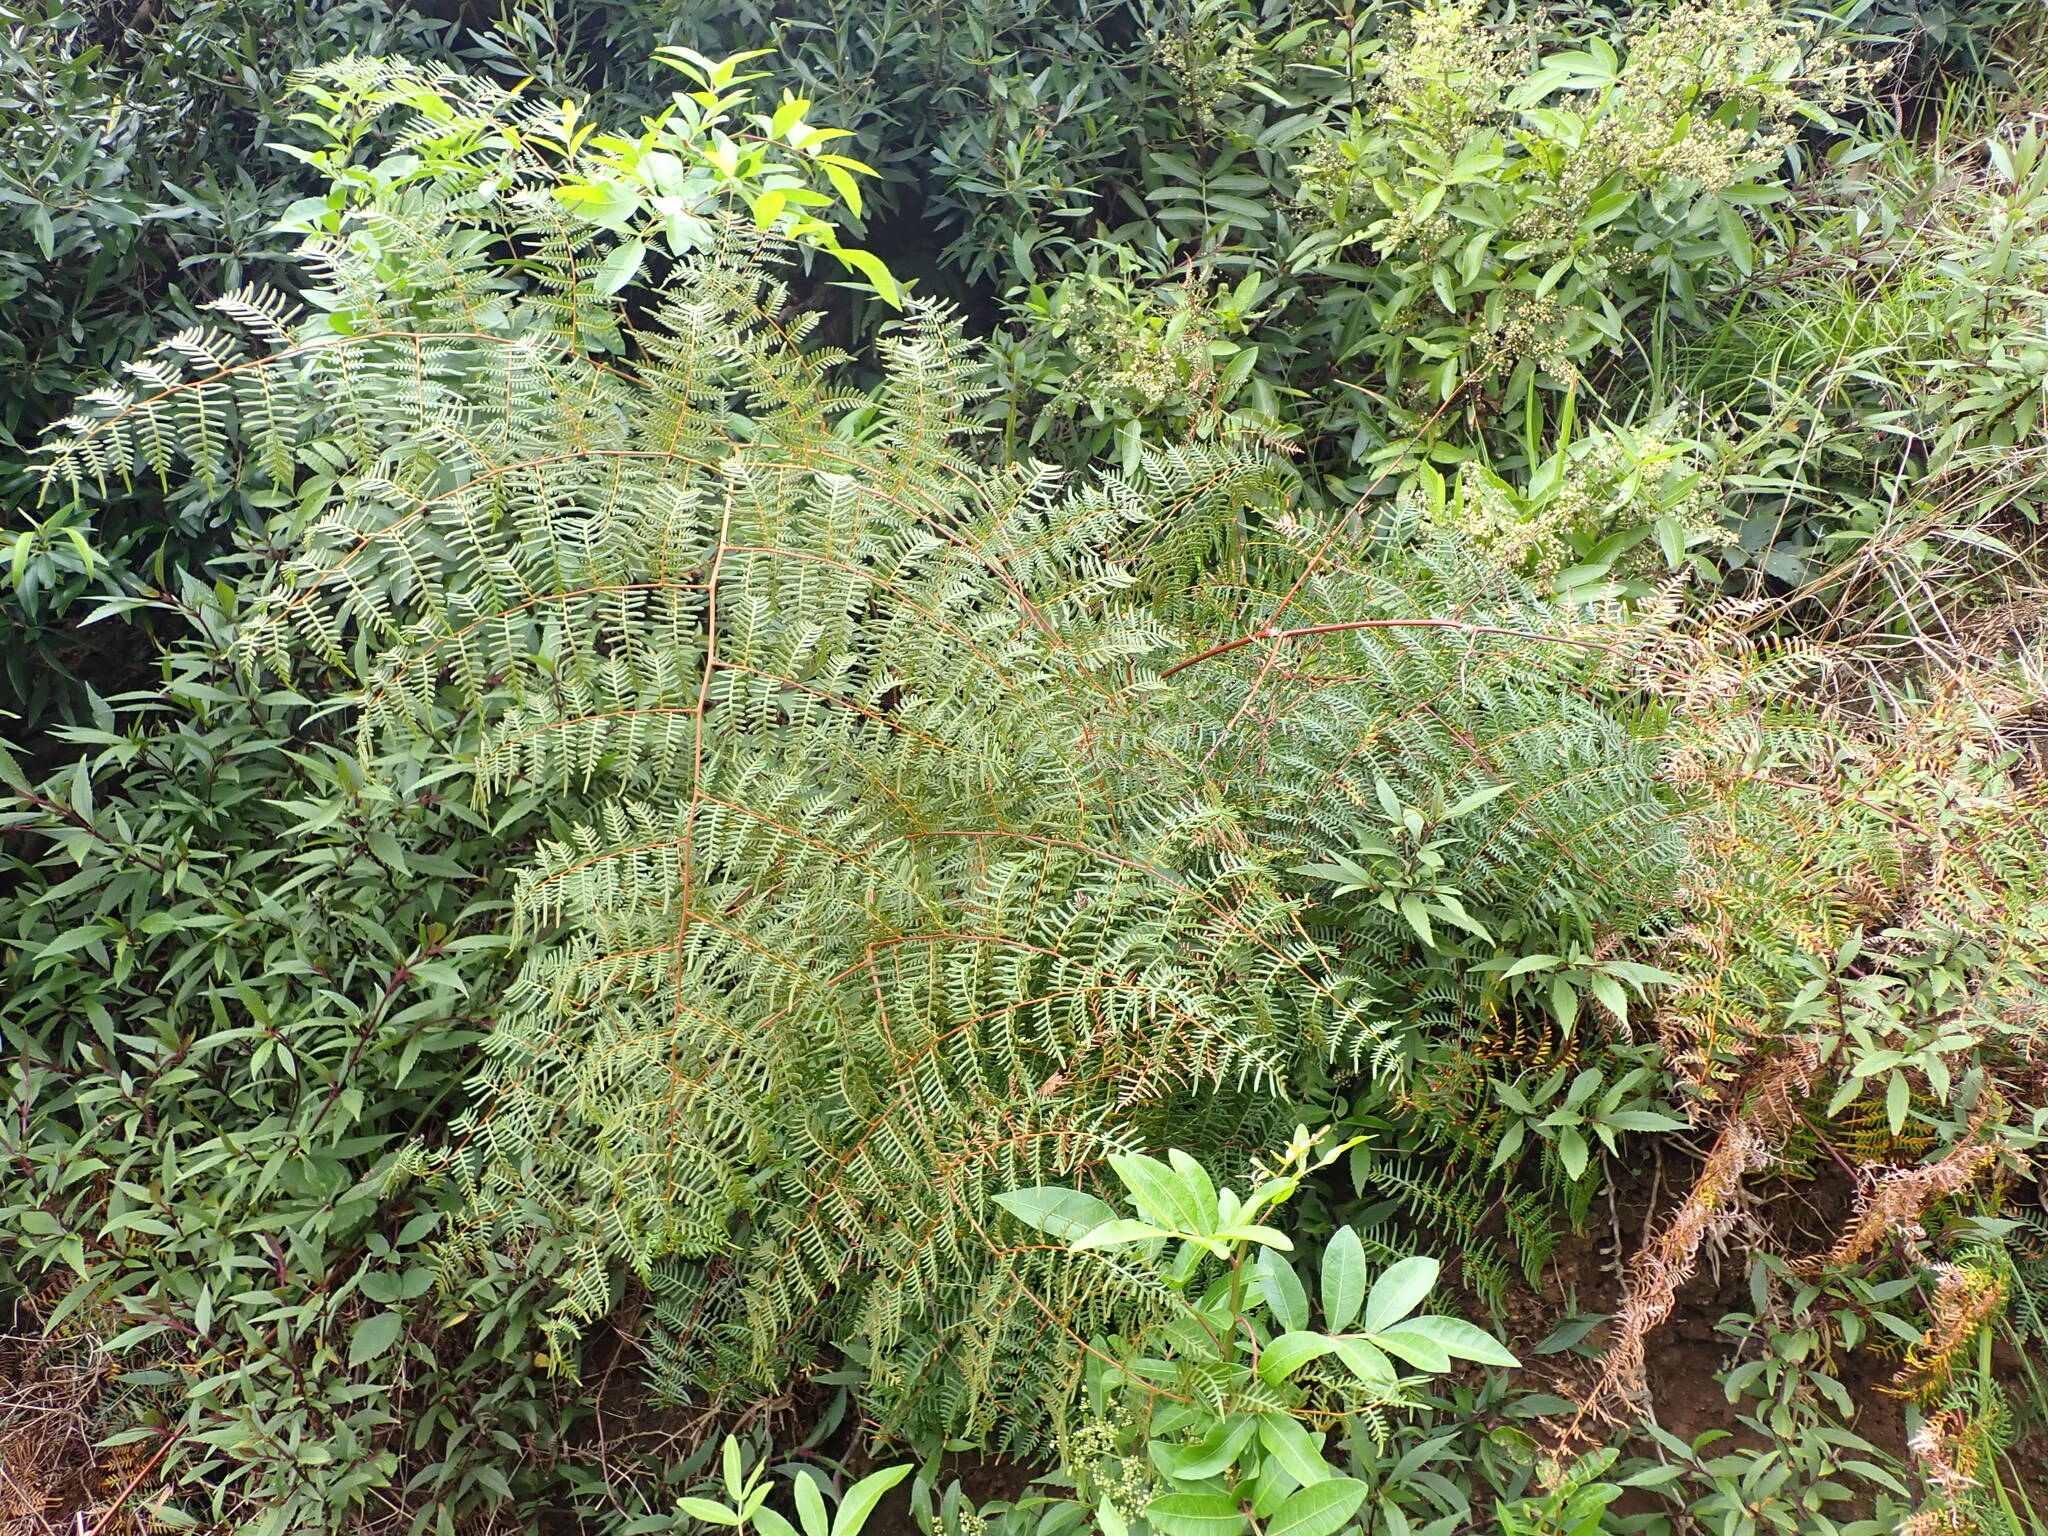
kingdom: Plantae
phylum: Tracheophyta
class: Polypodiopsida
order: Polypodiales
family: Dennstaedtiaceae
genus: Pteridium
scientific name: Pteridium esculentum
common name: Bracken fern
